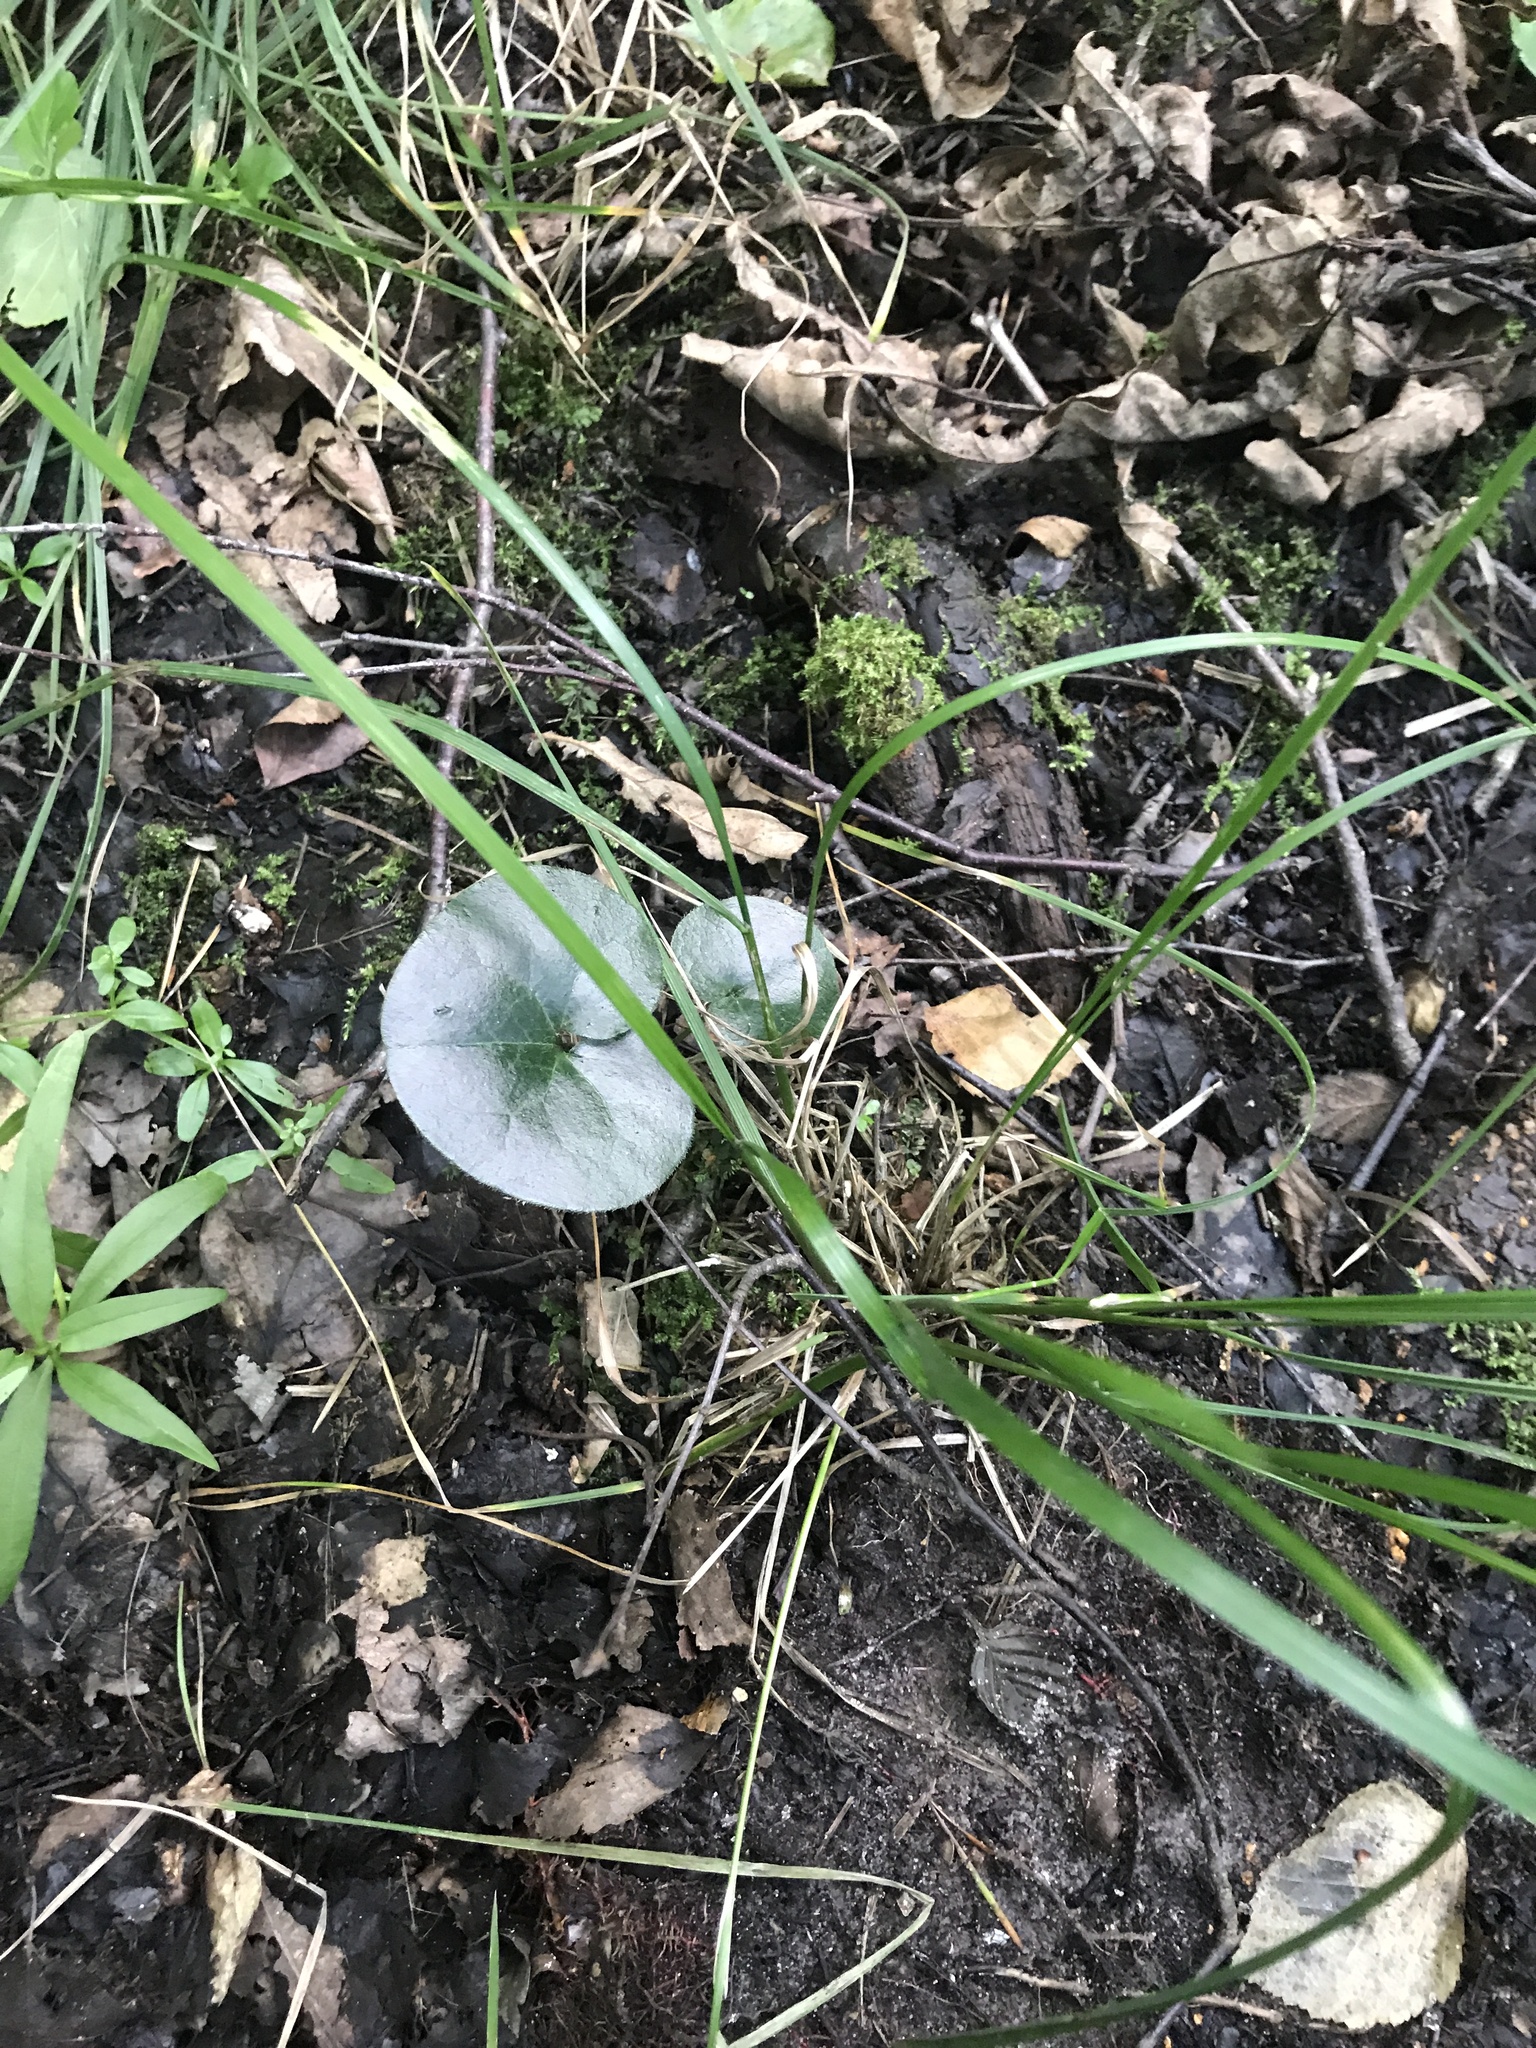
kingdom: Plantae
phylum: Tracheophyta
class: Magnoliopsida
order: Piperales
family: Aristolochiaceae
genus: Asarum
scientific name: Asarum europaeum
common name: Asarabacca
